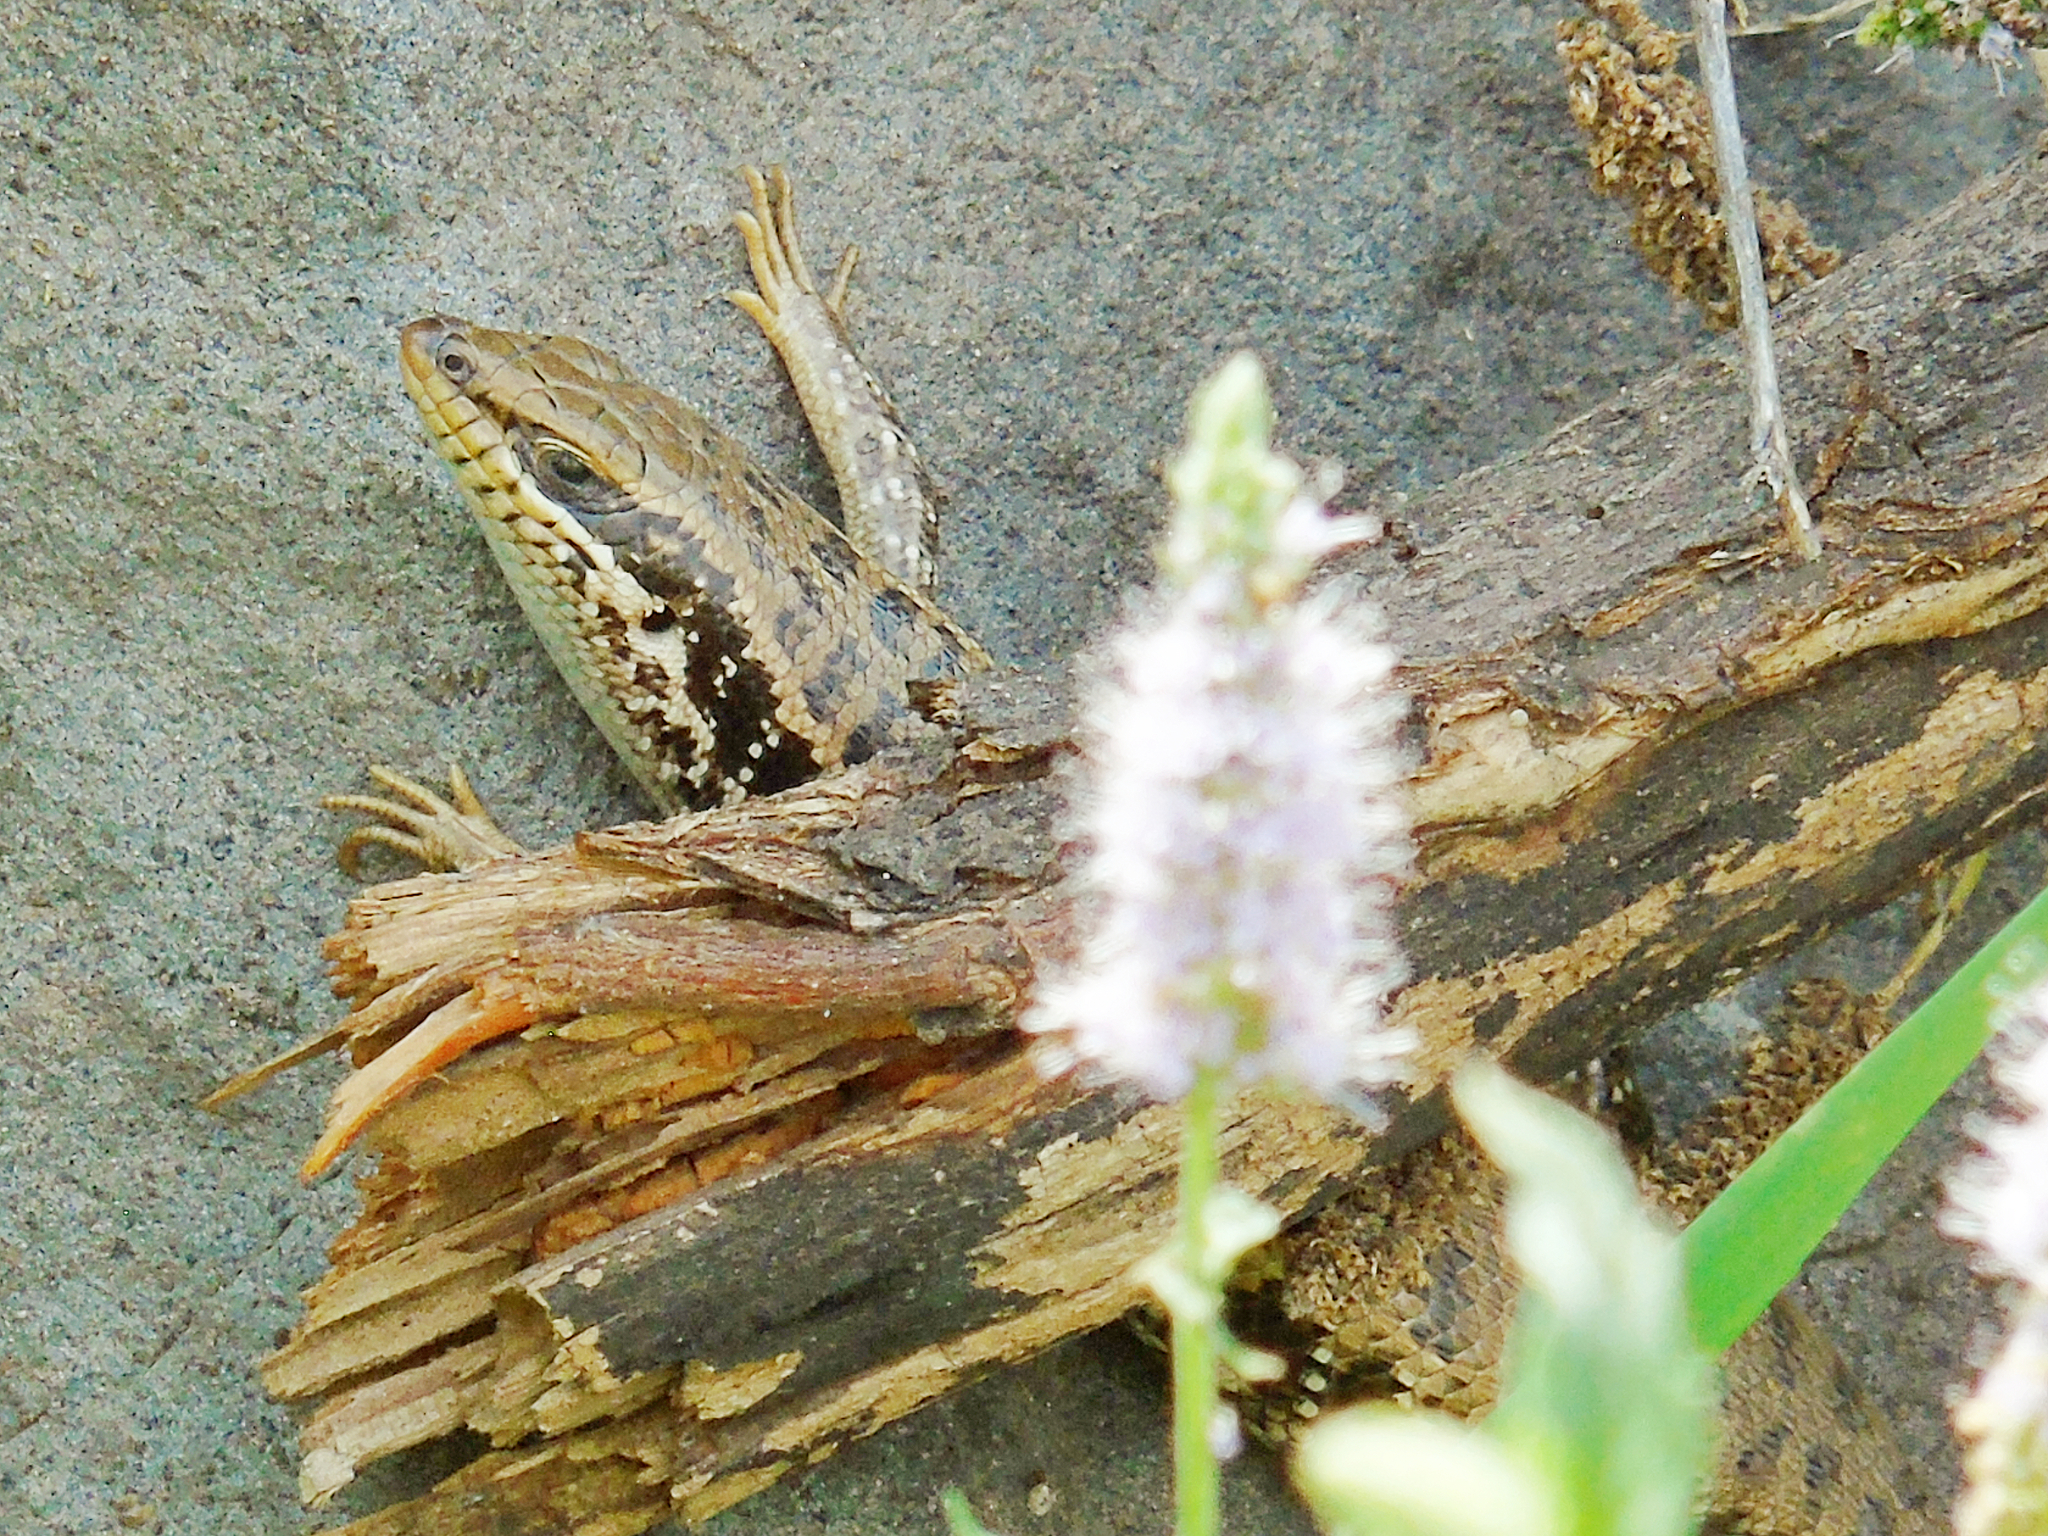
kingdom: Animalia
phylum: Chordata
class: Squamata
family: Scincidae
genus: Heremites
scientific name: Heremites auratus
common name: Golden grass mabuya
